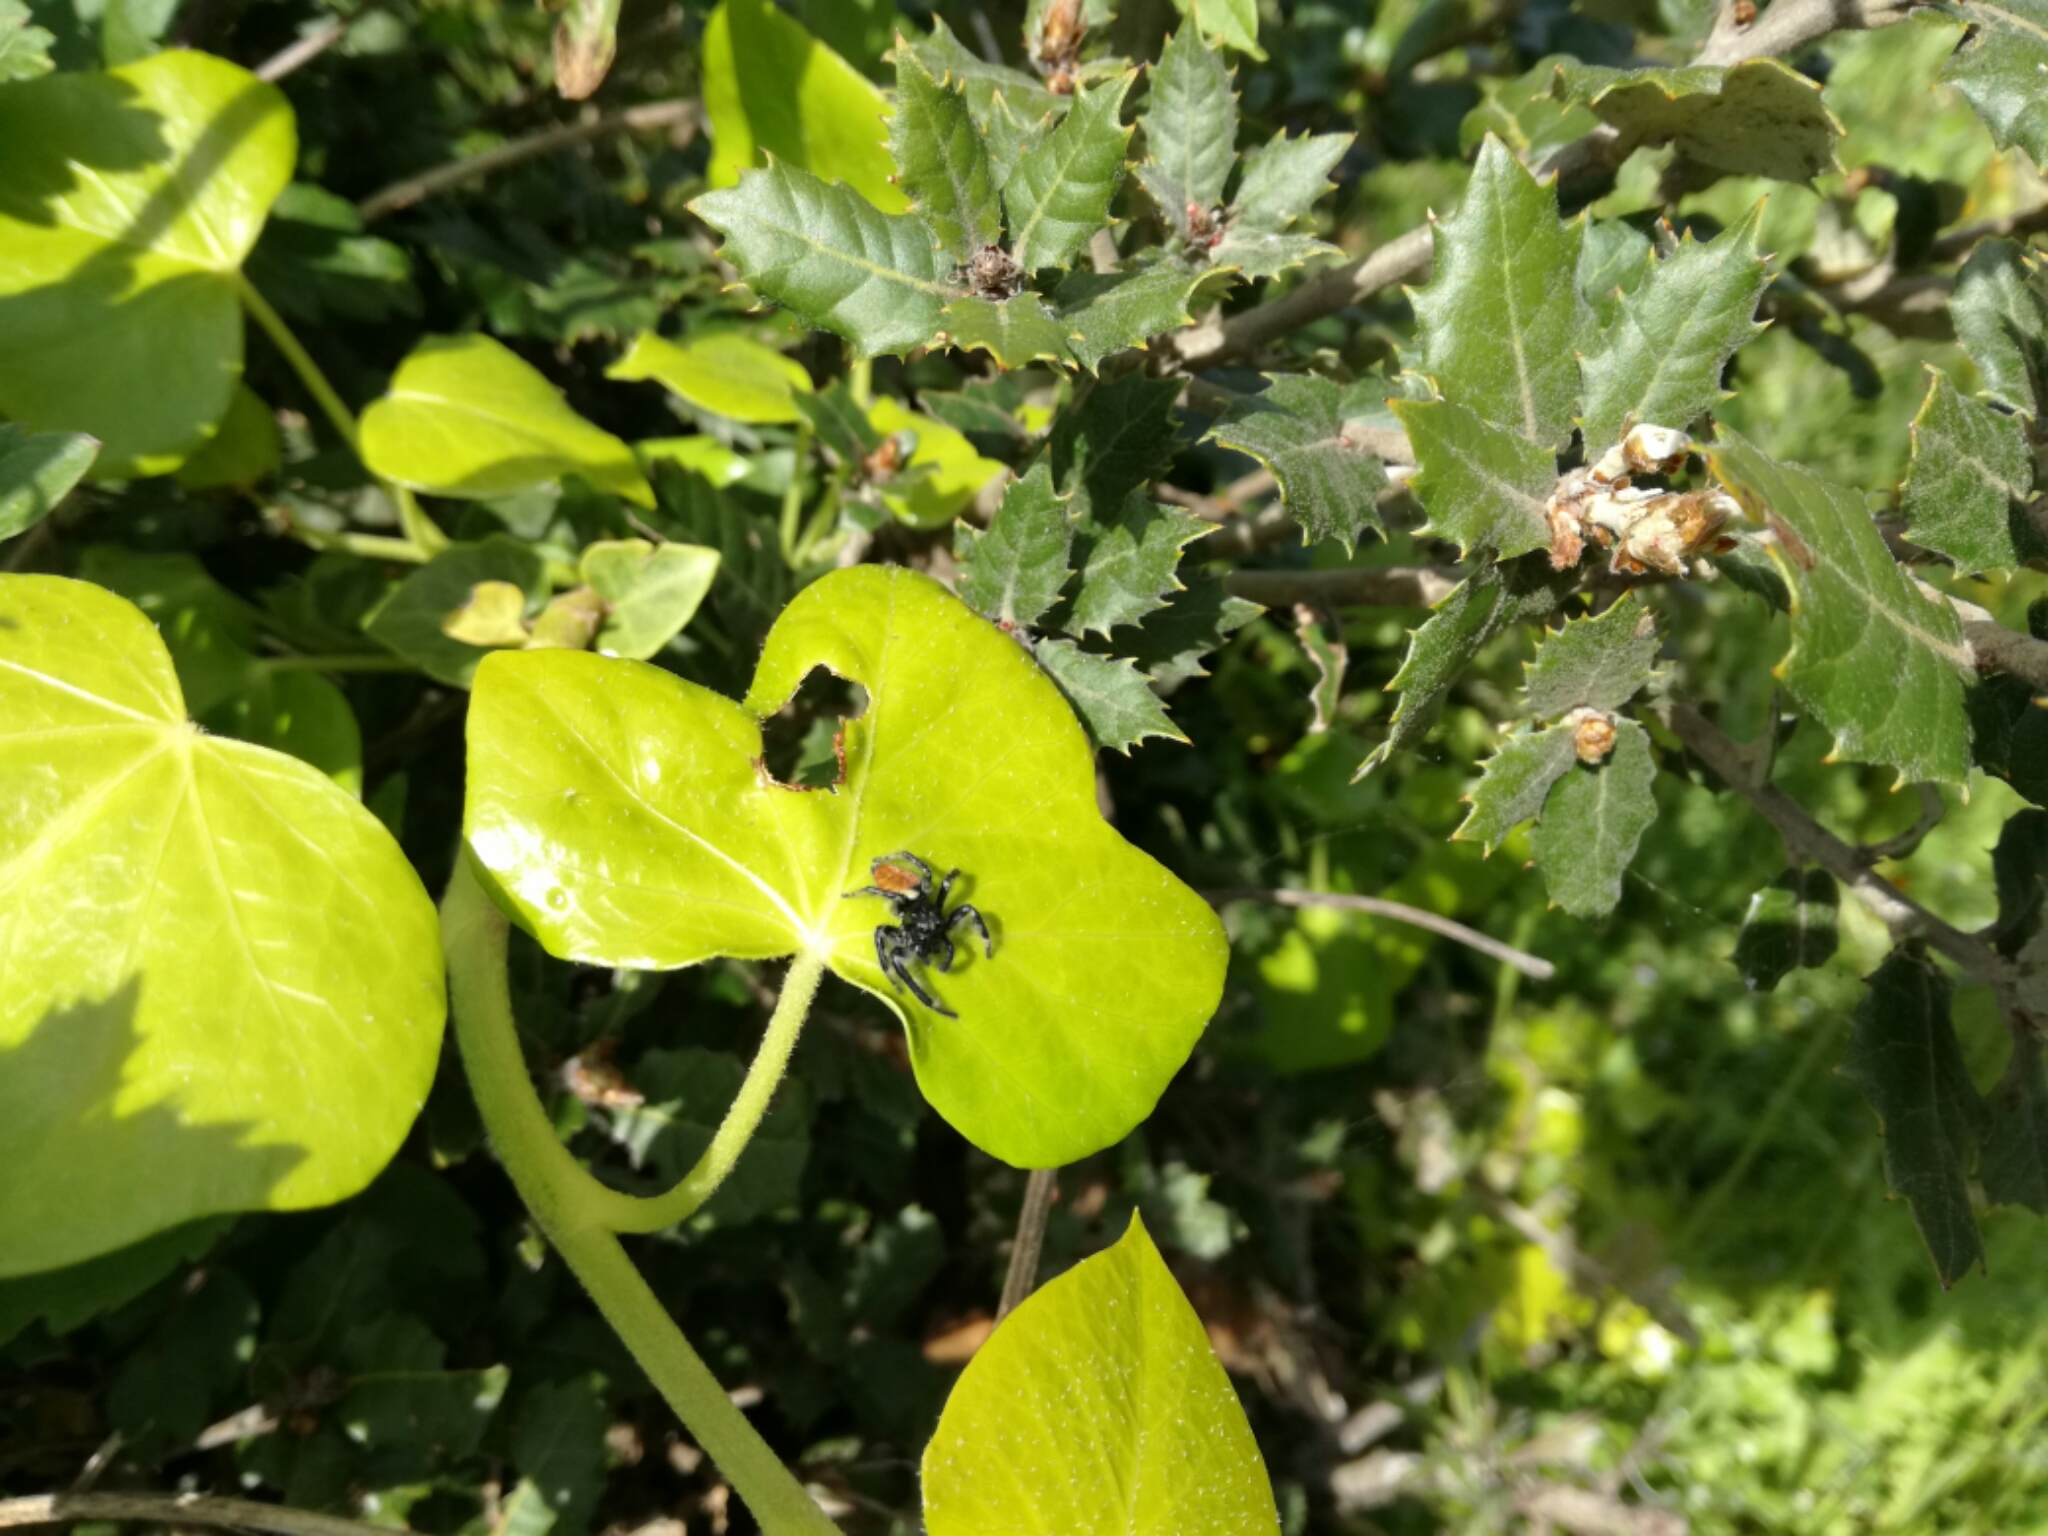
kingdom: Animalia
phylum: Arthropoda
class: Arachnida
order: Araneae
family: Salticidae
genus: Carrhotus
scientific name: Carrhotus xanthogramma
